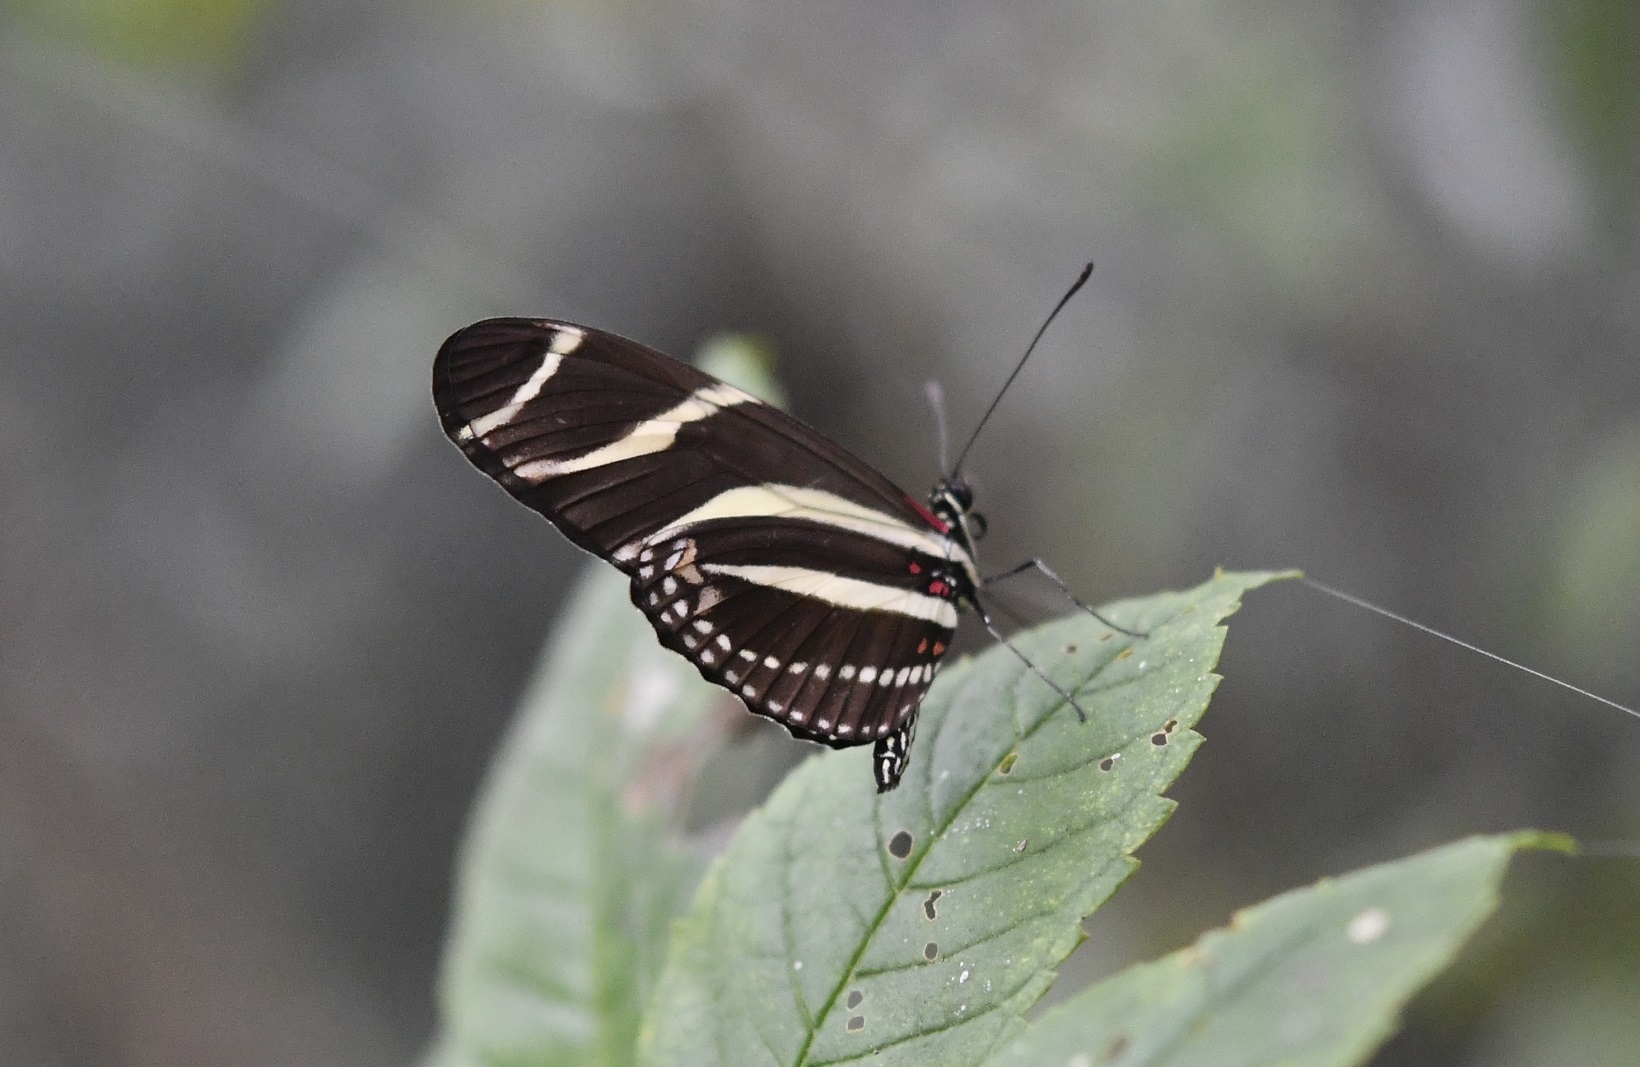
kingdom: Animalia
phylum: Arthropoda
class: Insecta
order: Lepidoptera
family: Nymphalidae
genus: Heliconius
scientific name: Heliconius charithonia
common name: Zebra long wing
